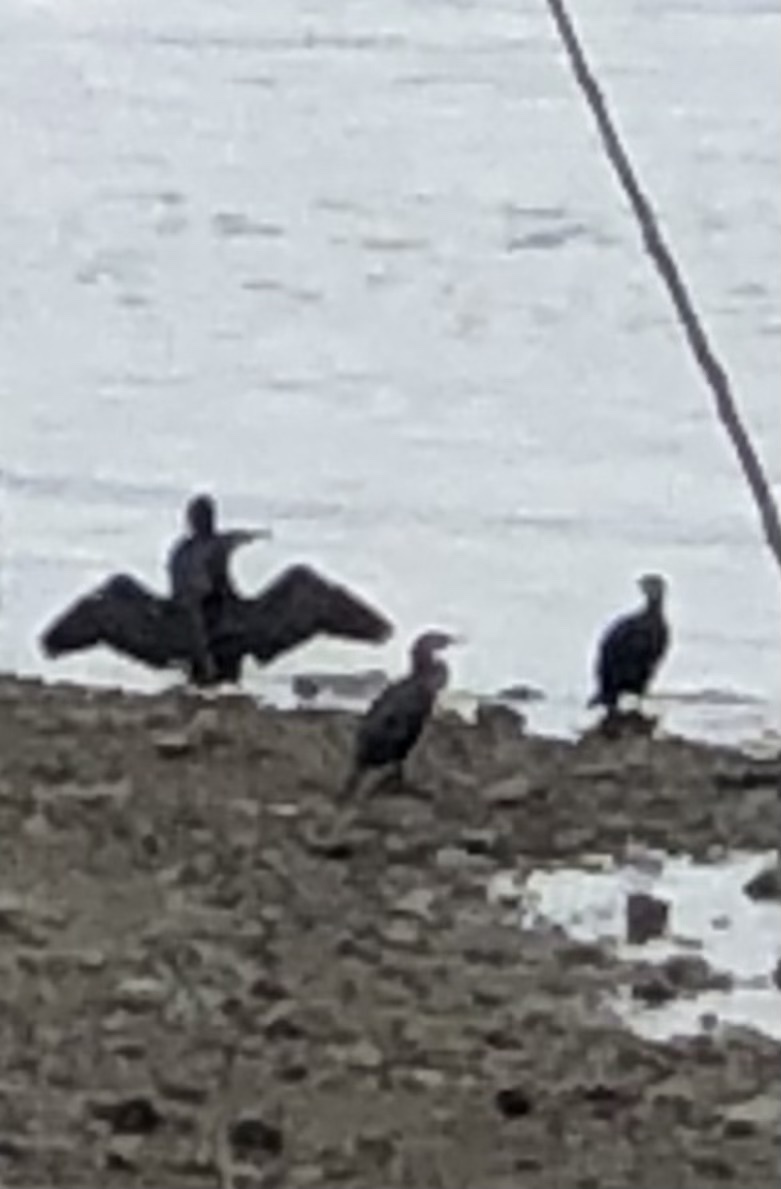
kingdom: Animalia
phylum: Chordata
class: Aves
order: Suliformes
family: Phalacrocoracidae
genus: Phalacrocorax
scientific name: Phalacrocorax carbo
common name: Great cormorant
